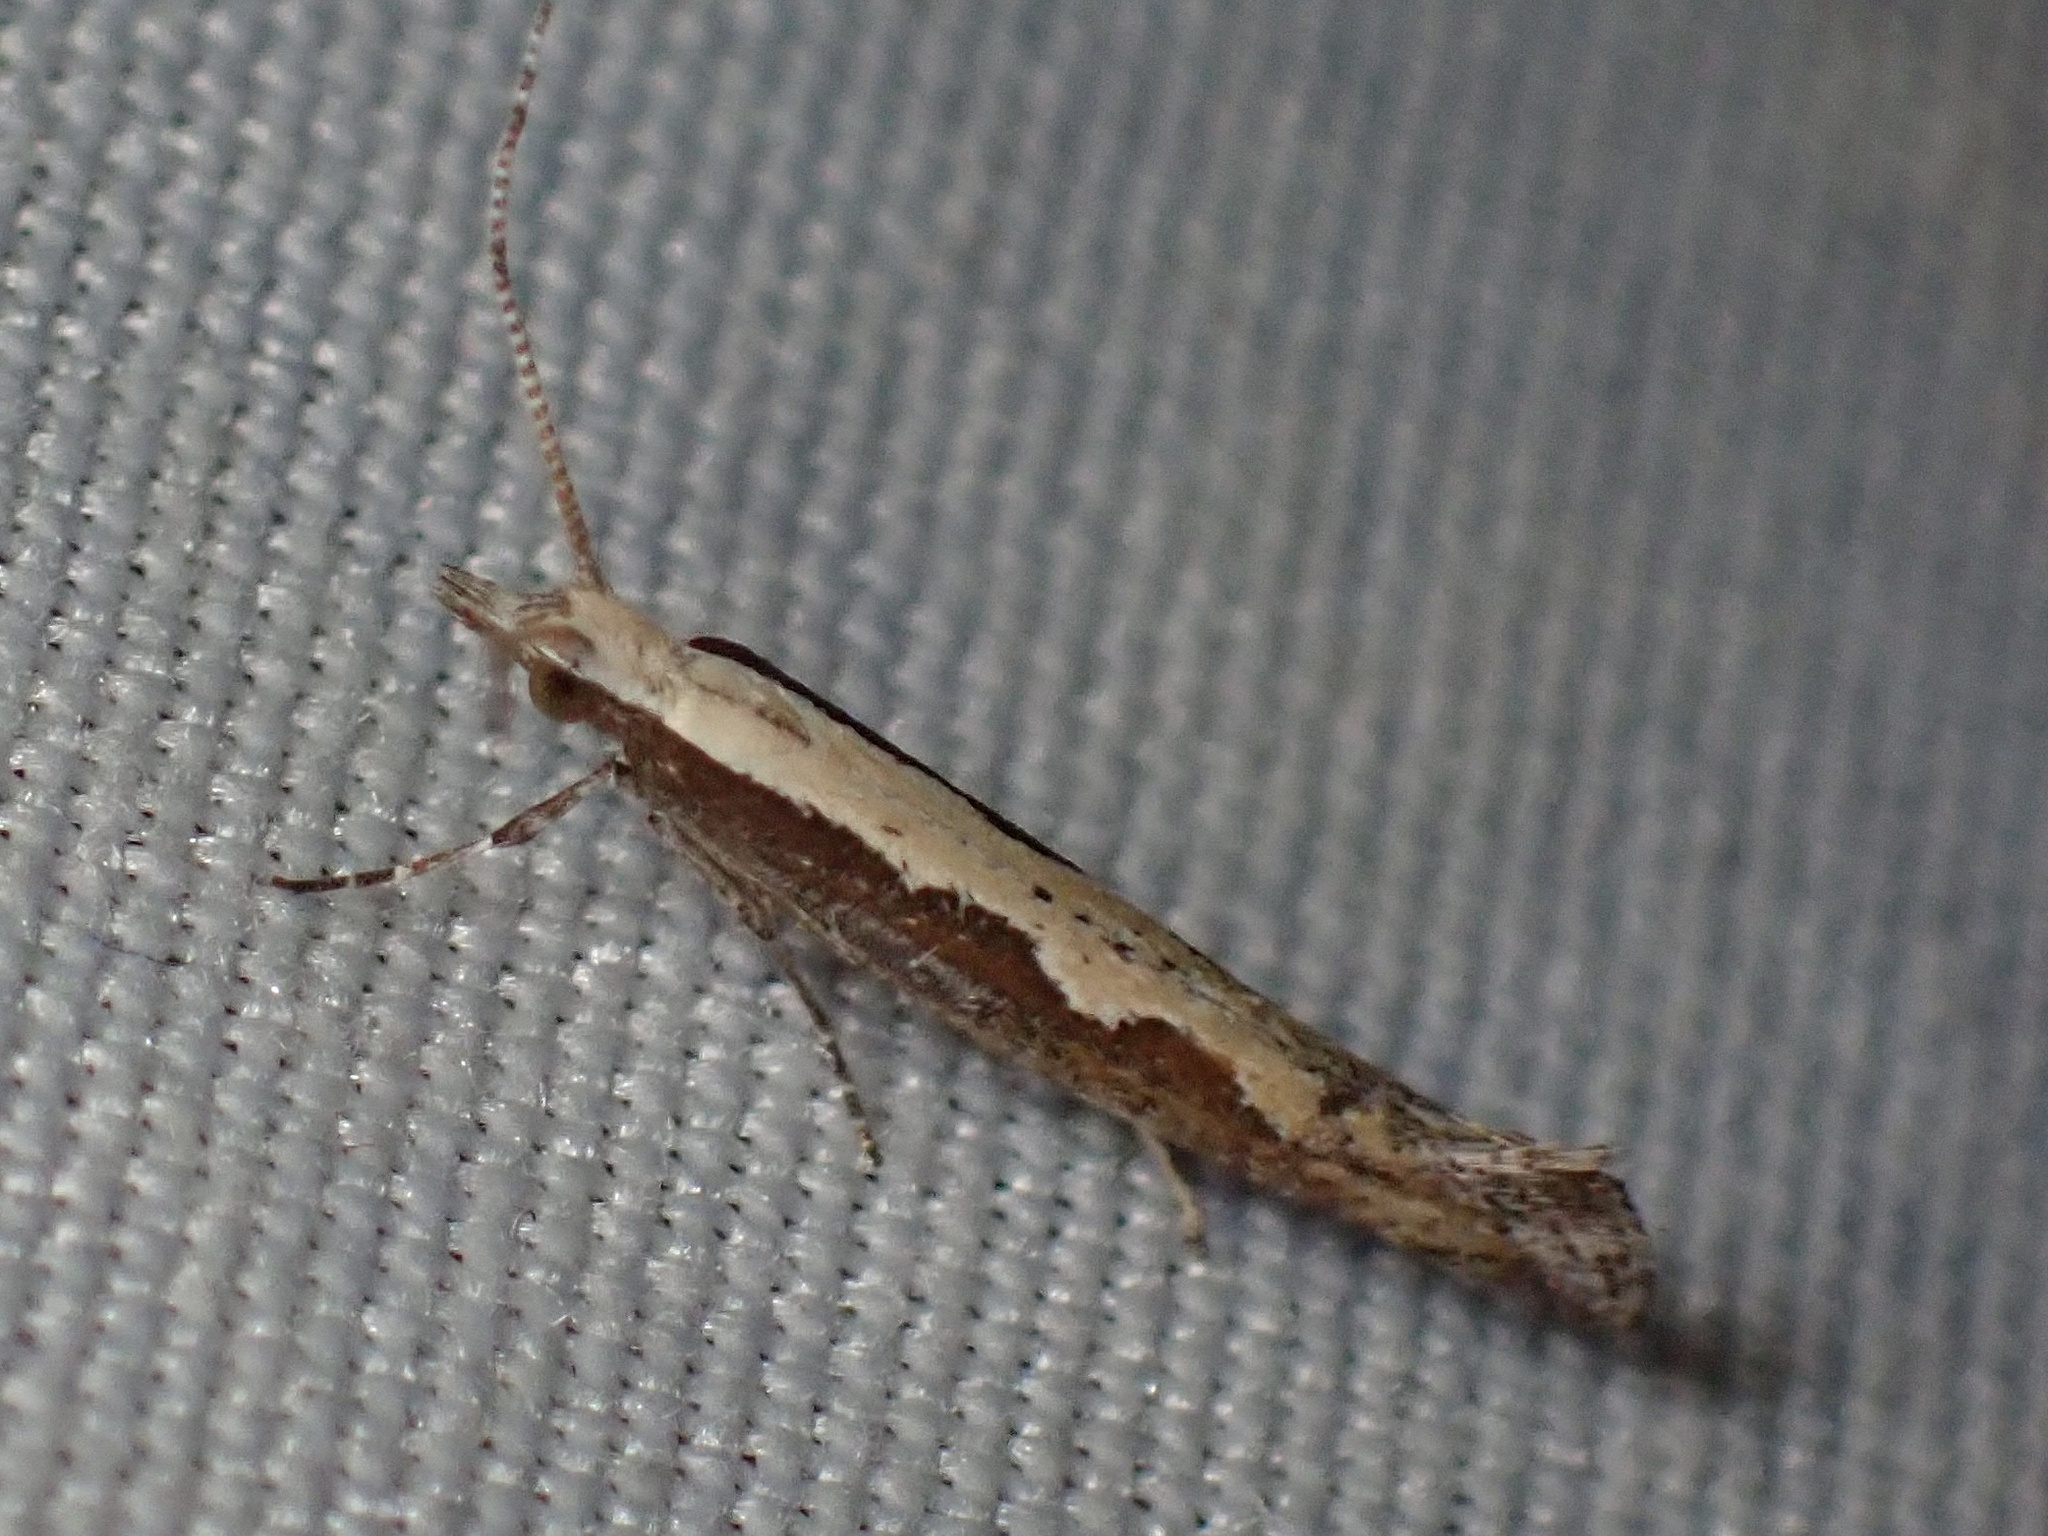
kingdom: Animalia
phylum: Arthropoda
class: Insecta
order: Lepidoptera
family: Plutellidae
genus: Plutella
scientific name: Plutella xylostella
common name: Diamond-back moth
